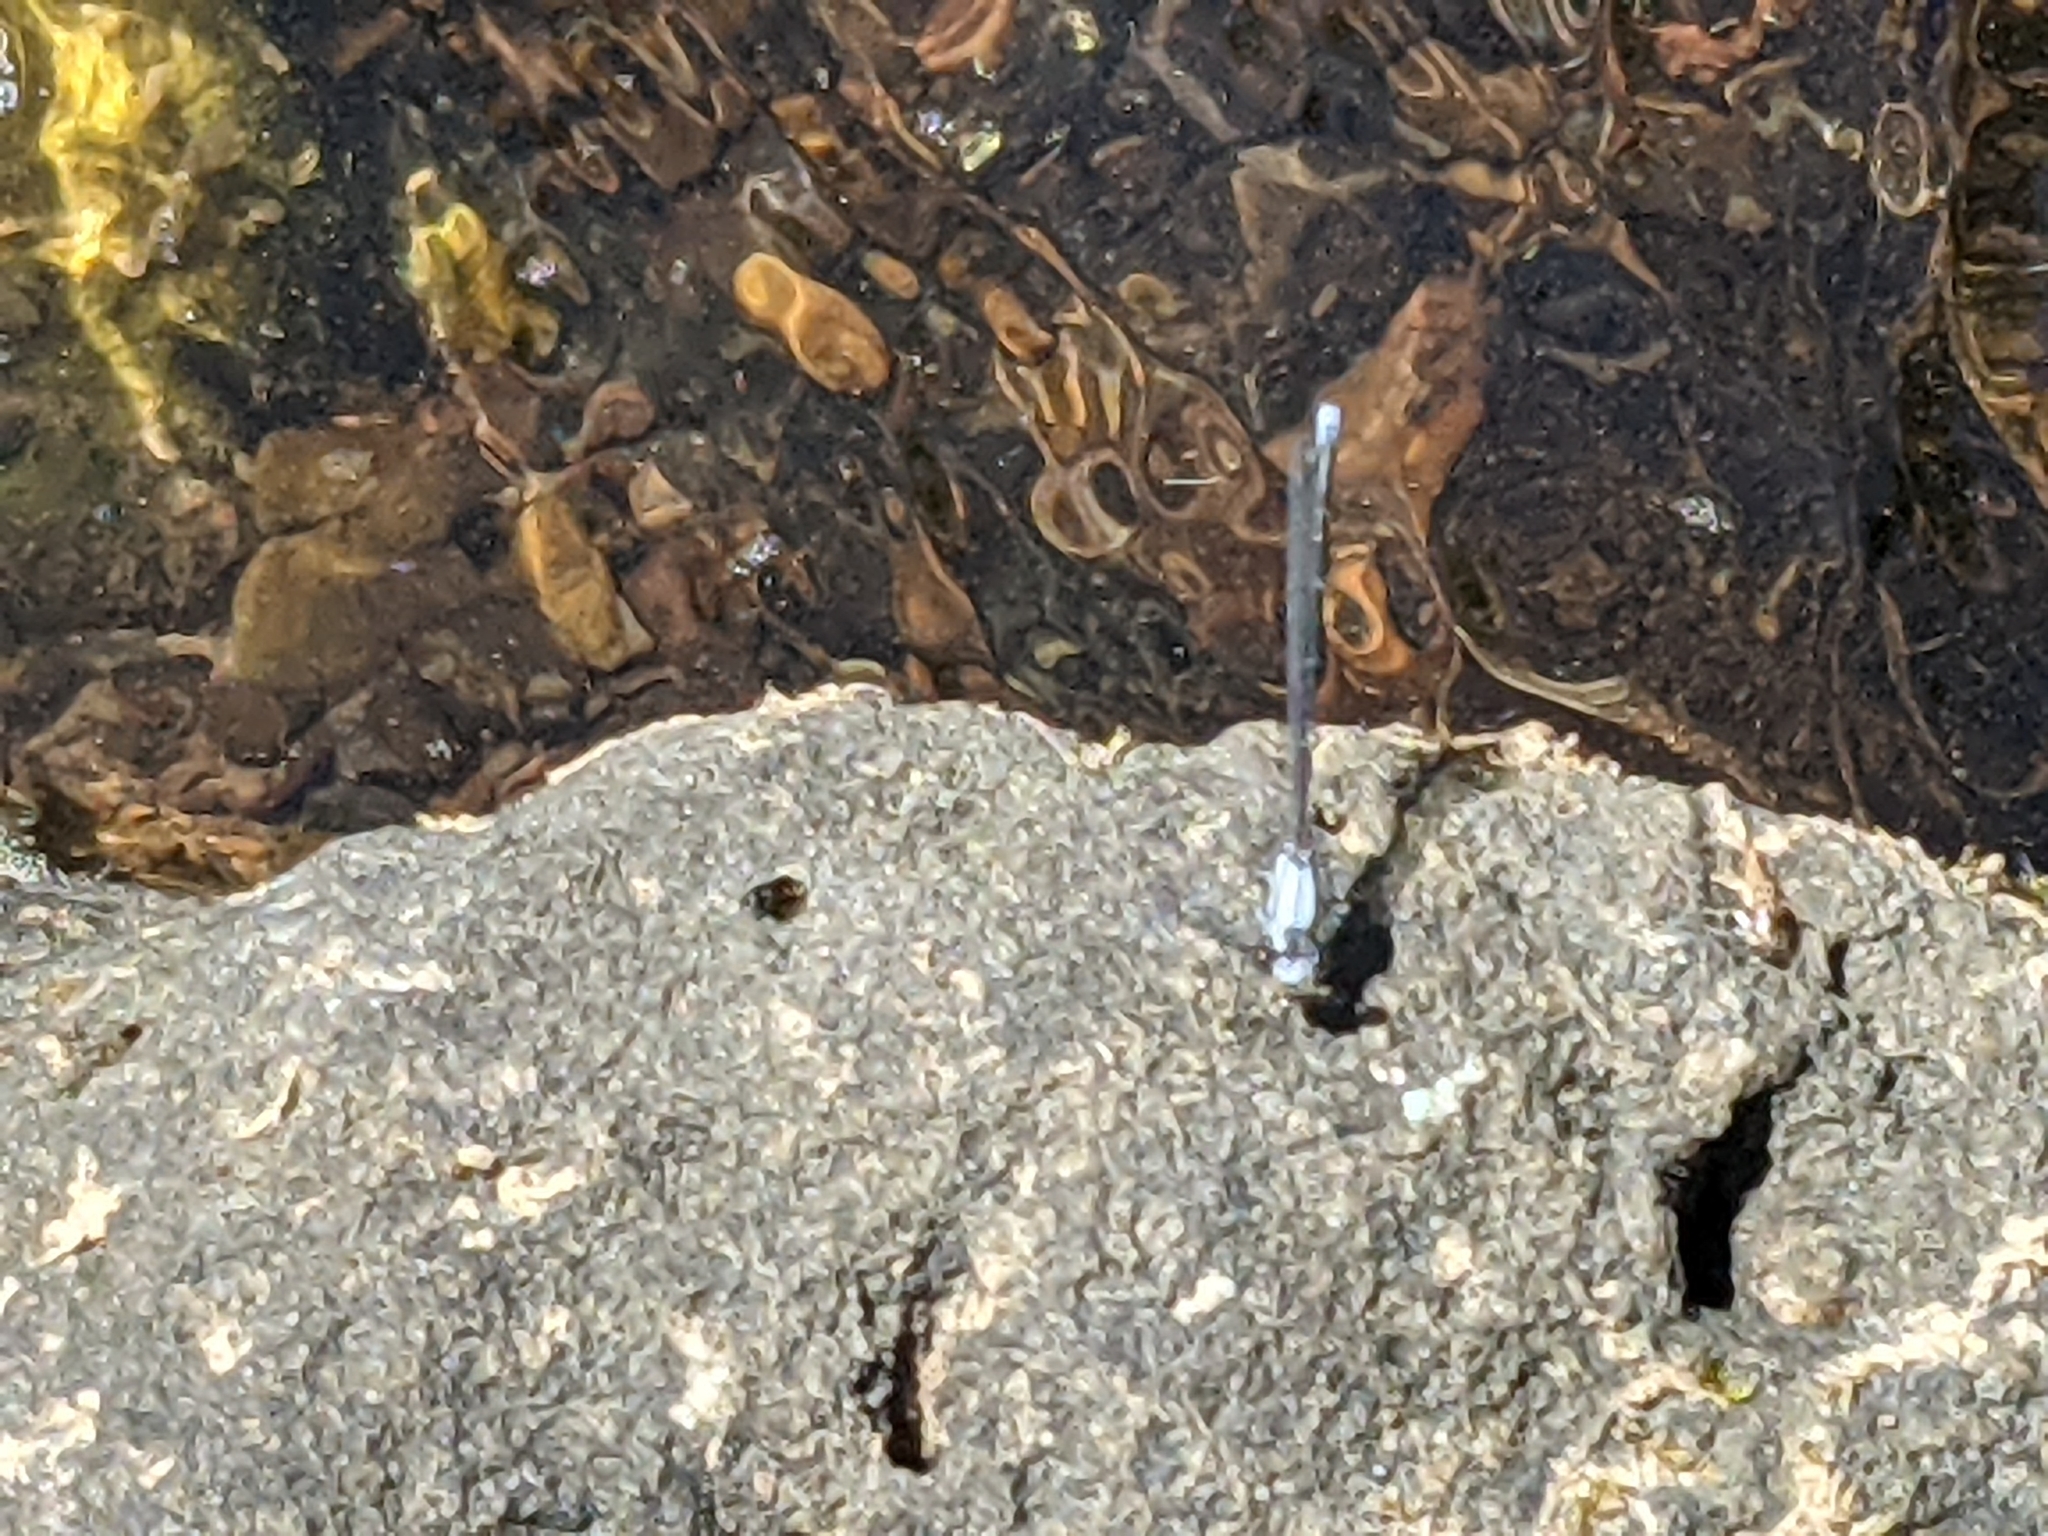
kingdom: Animalia
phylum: Arthropoda
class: Insecta
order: Odonata
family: Coenagrionidae
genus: Argia
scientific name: Argia moesta
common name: Powdered dancer
